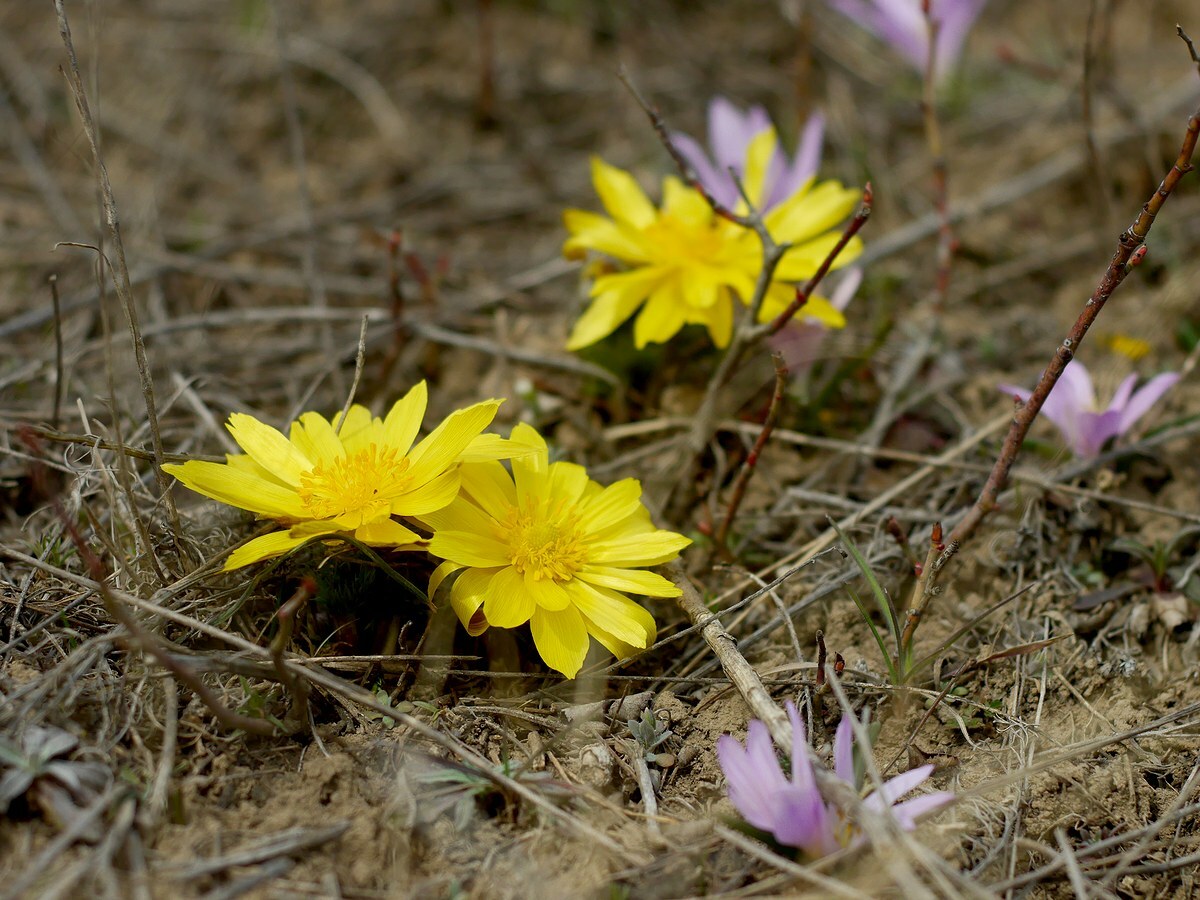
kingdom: Plantae
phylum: Tracheophyta
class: Magnoliopsida
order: Ranunculales
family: Ranunculaceae
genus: Adonis
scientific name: Adonis vernalis
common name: Yellow pheasants-eye
